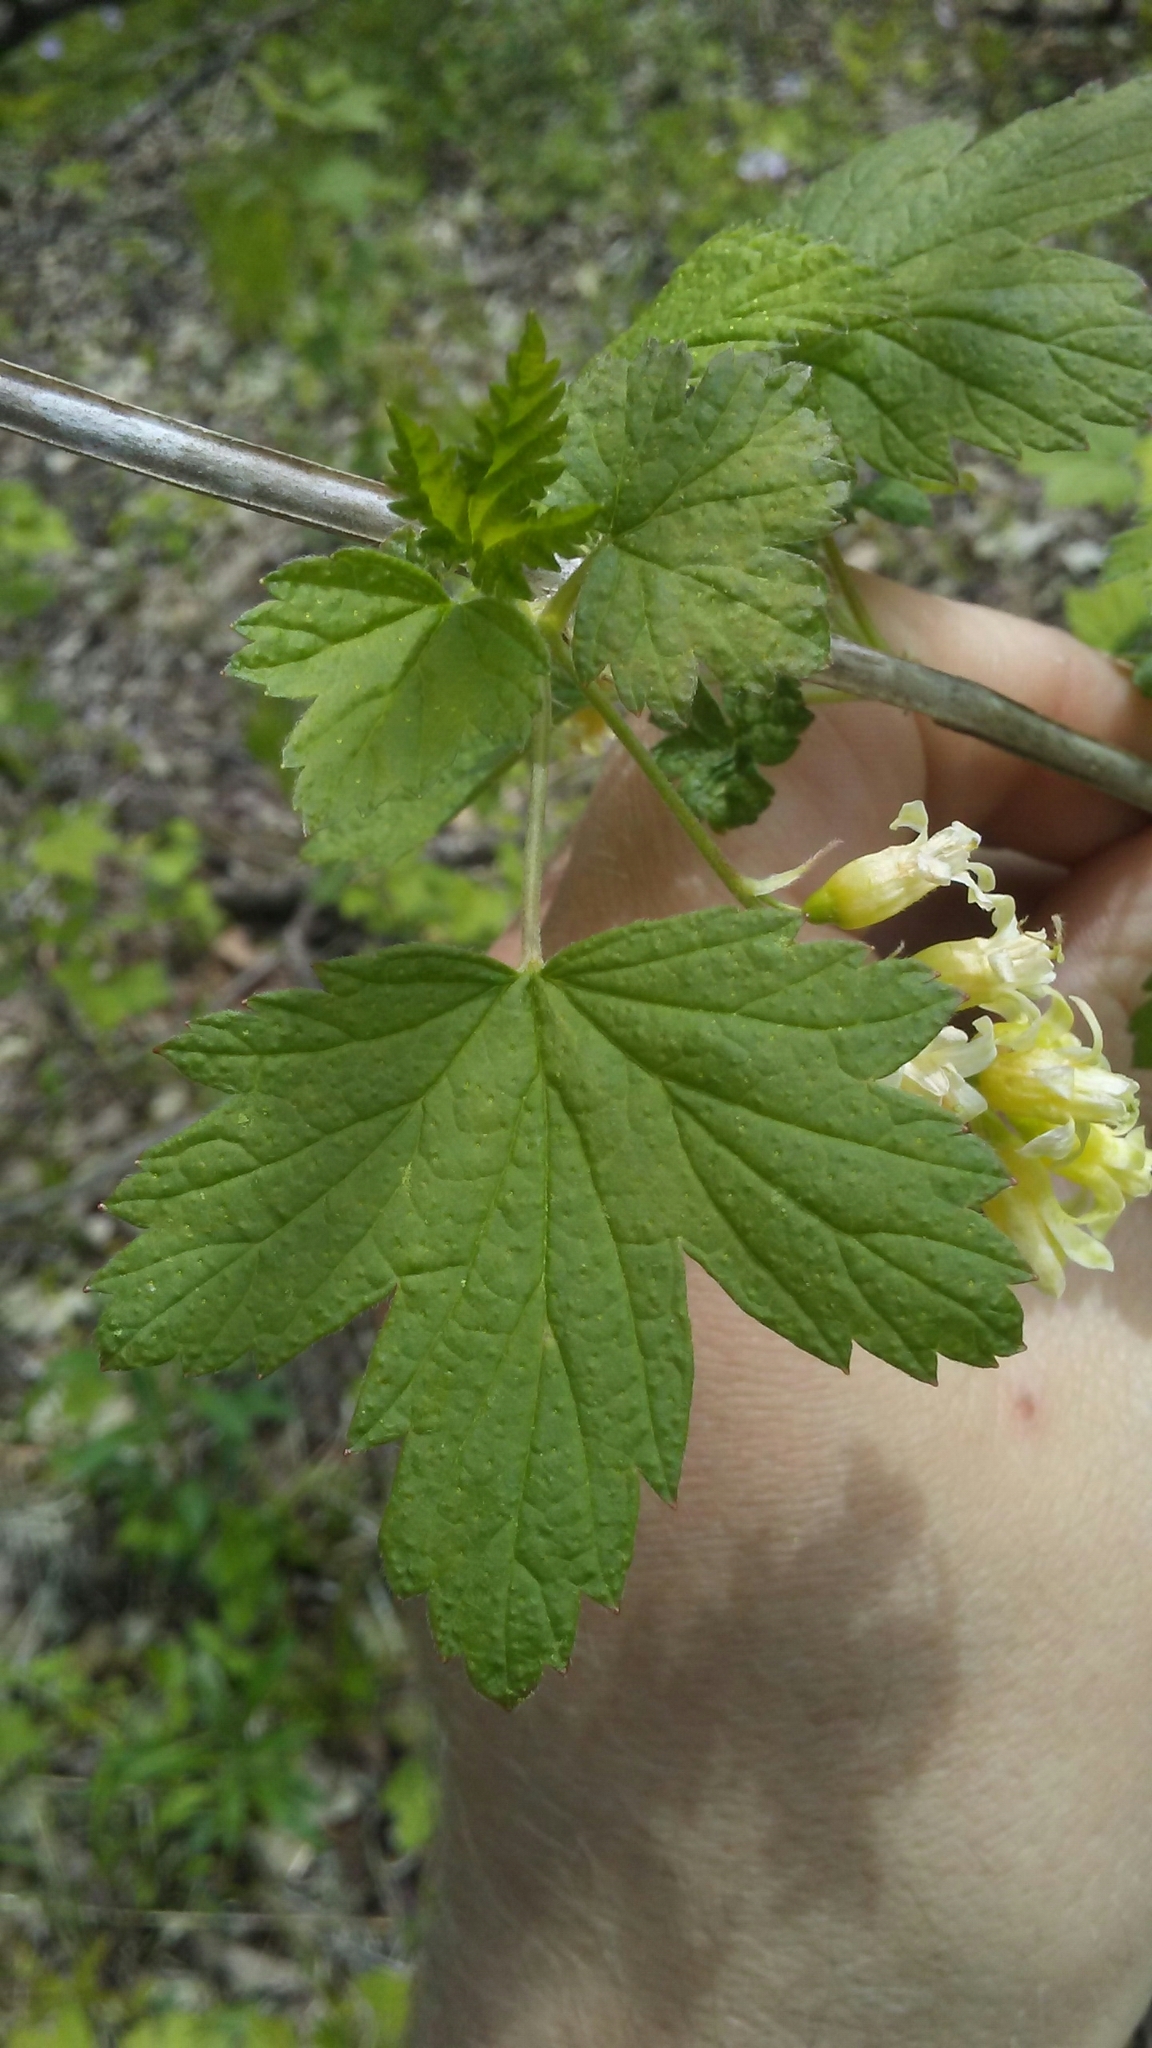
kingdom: Plantae
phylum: Tracheophyta
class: Magnoliopsida
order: Saxifragales
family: Grossulariaceae
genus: Ribes
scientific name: Ribes americanum
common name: American black currant
